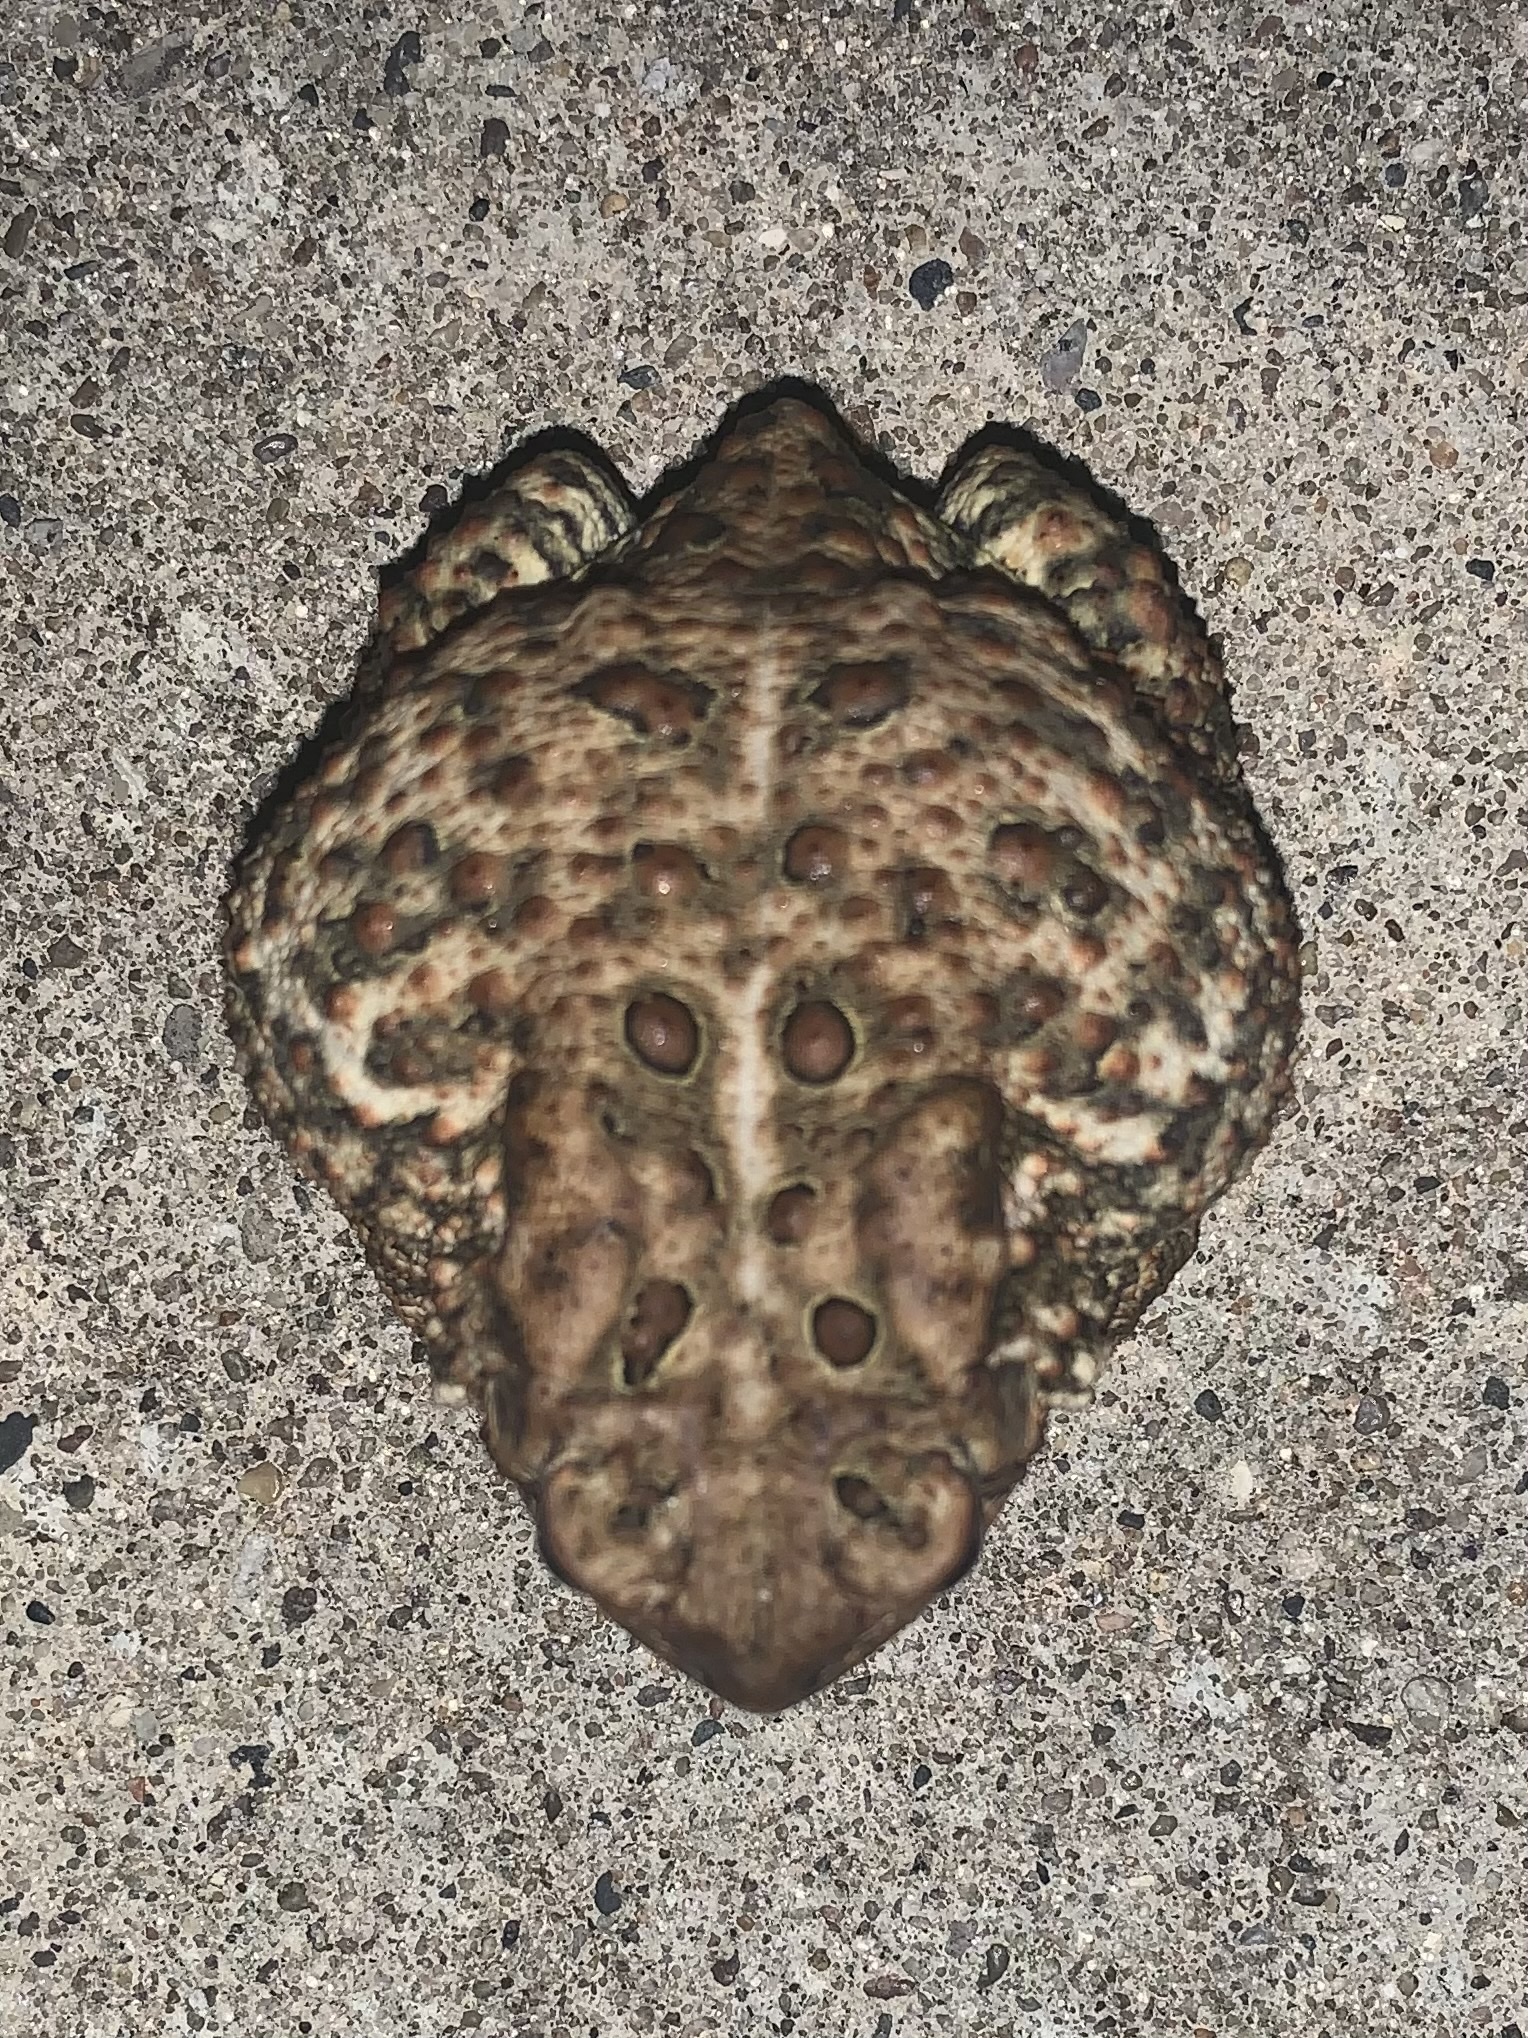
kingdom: Animalia
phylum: Chordata
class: Amphibia
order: Anura
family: Bufonidae
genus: Anaxyrus
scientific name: Anaxyrus americanus
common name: American toad
